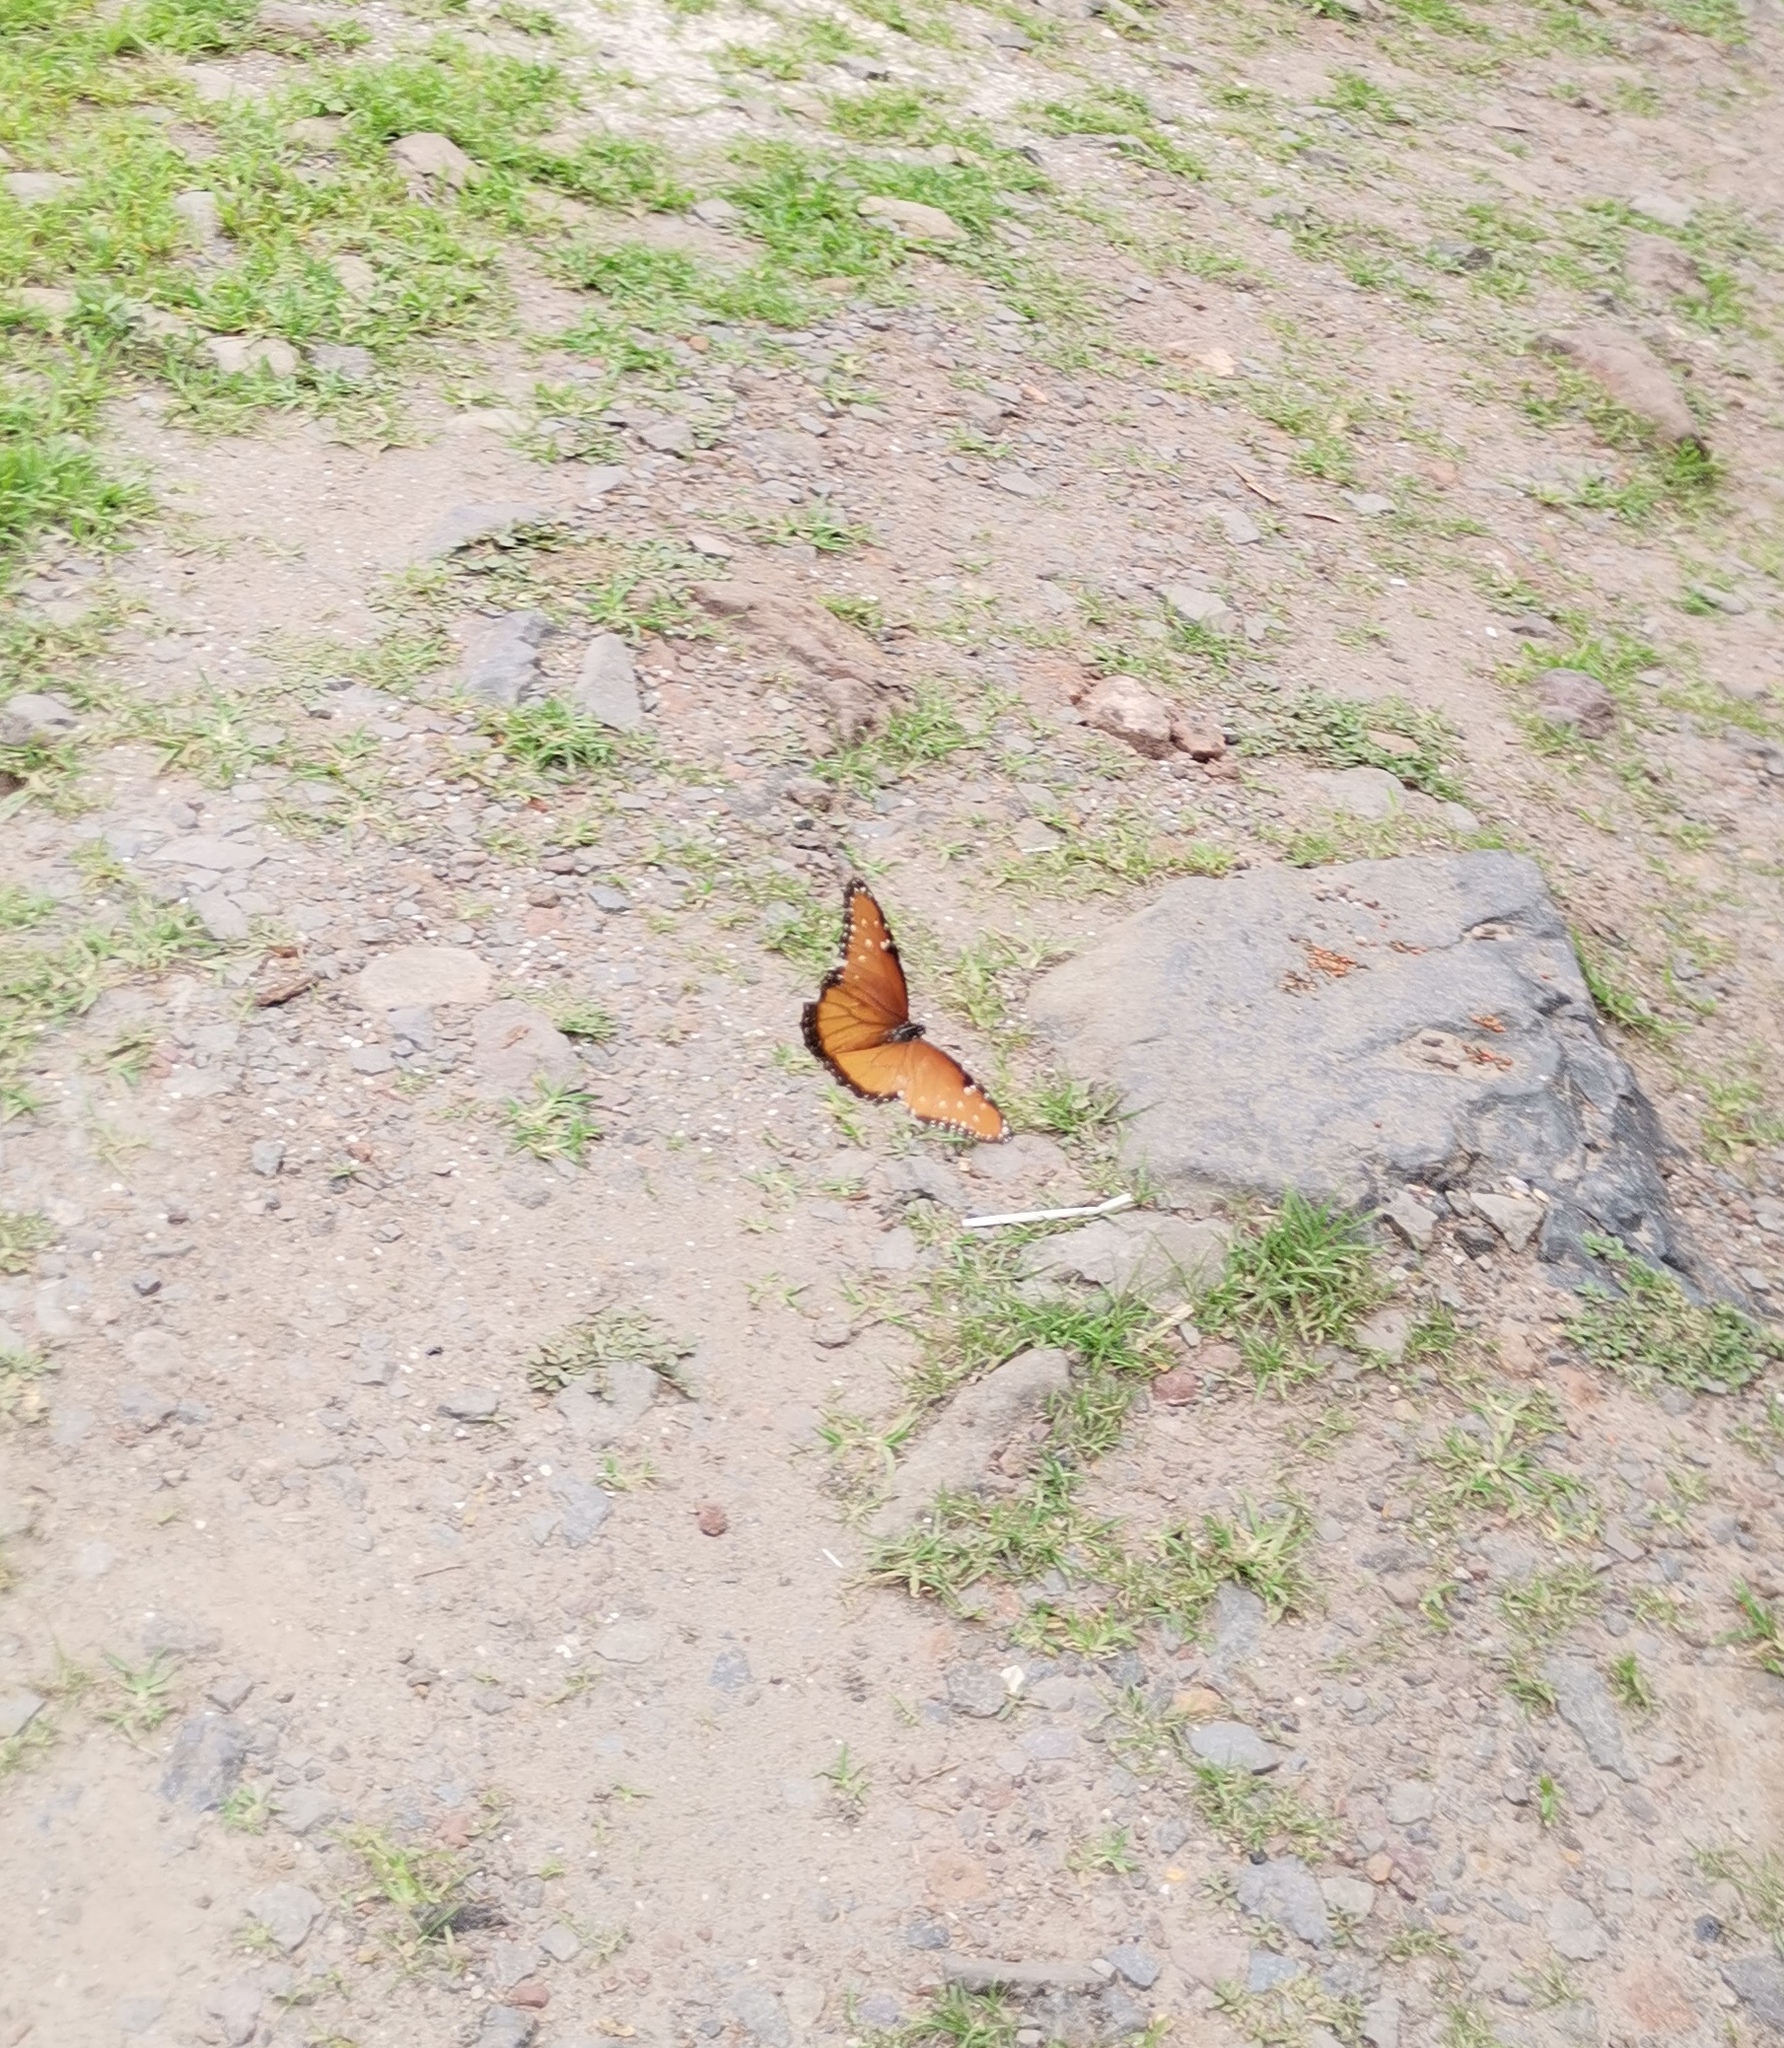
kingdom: Animalia
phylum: Arthropoda
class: Insecta
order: Lepidoptera
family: Nymphalidae
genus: Danaus
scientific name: Danaus gilippus
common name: Queen
